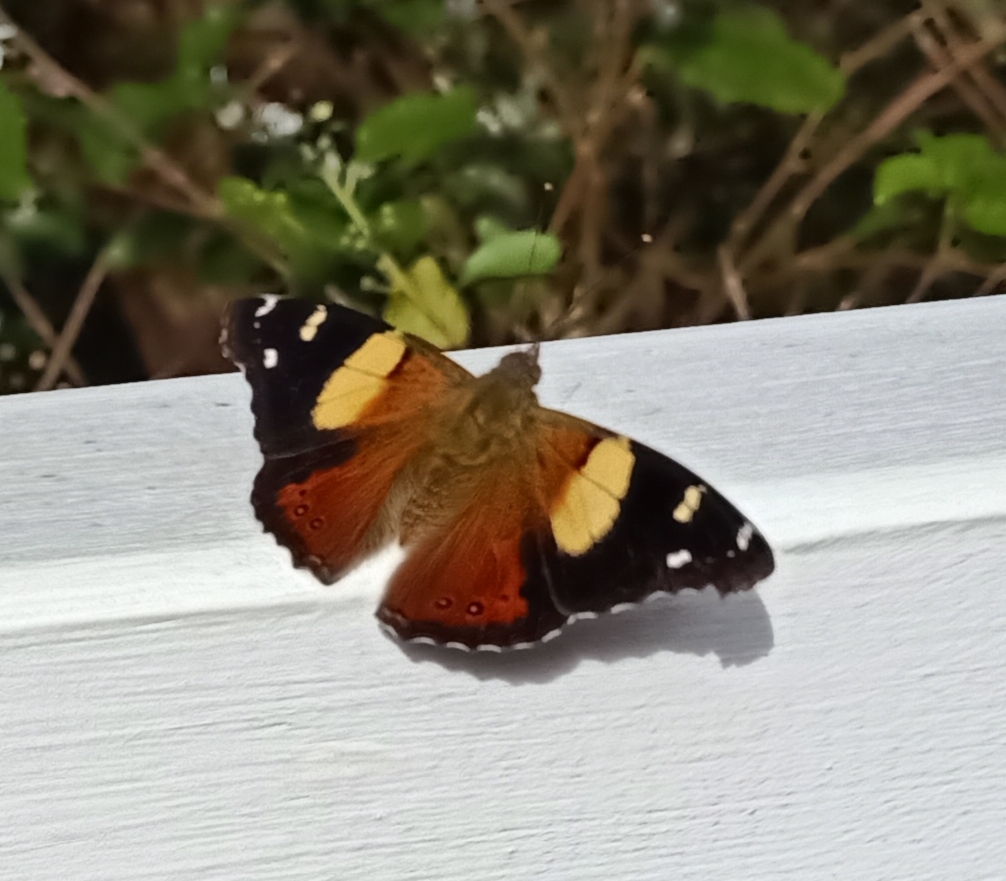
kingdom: Animalia
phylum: Arthropoda
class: Insecta
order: Lepidoptera
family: Nymphalidae
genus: Vanessa
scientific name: Vanessa itea
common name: Yellow admiral
